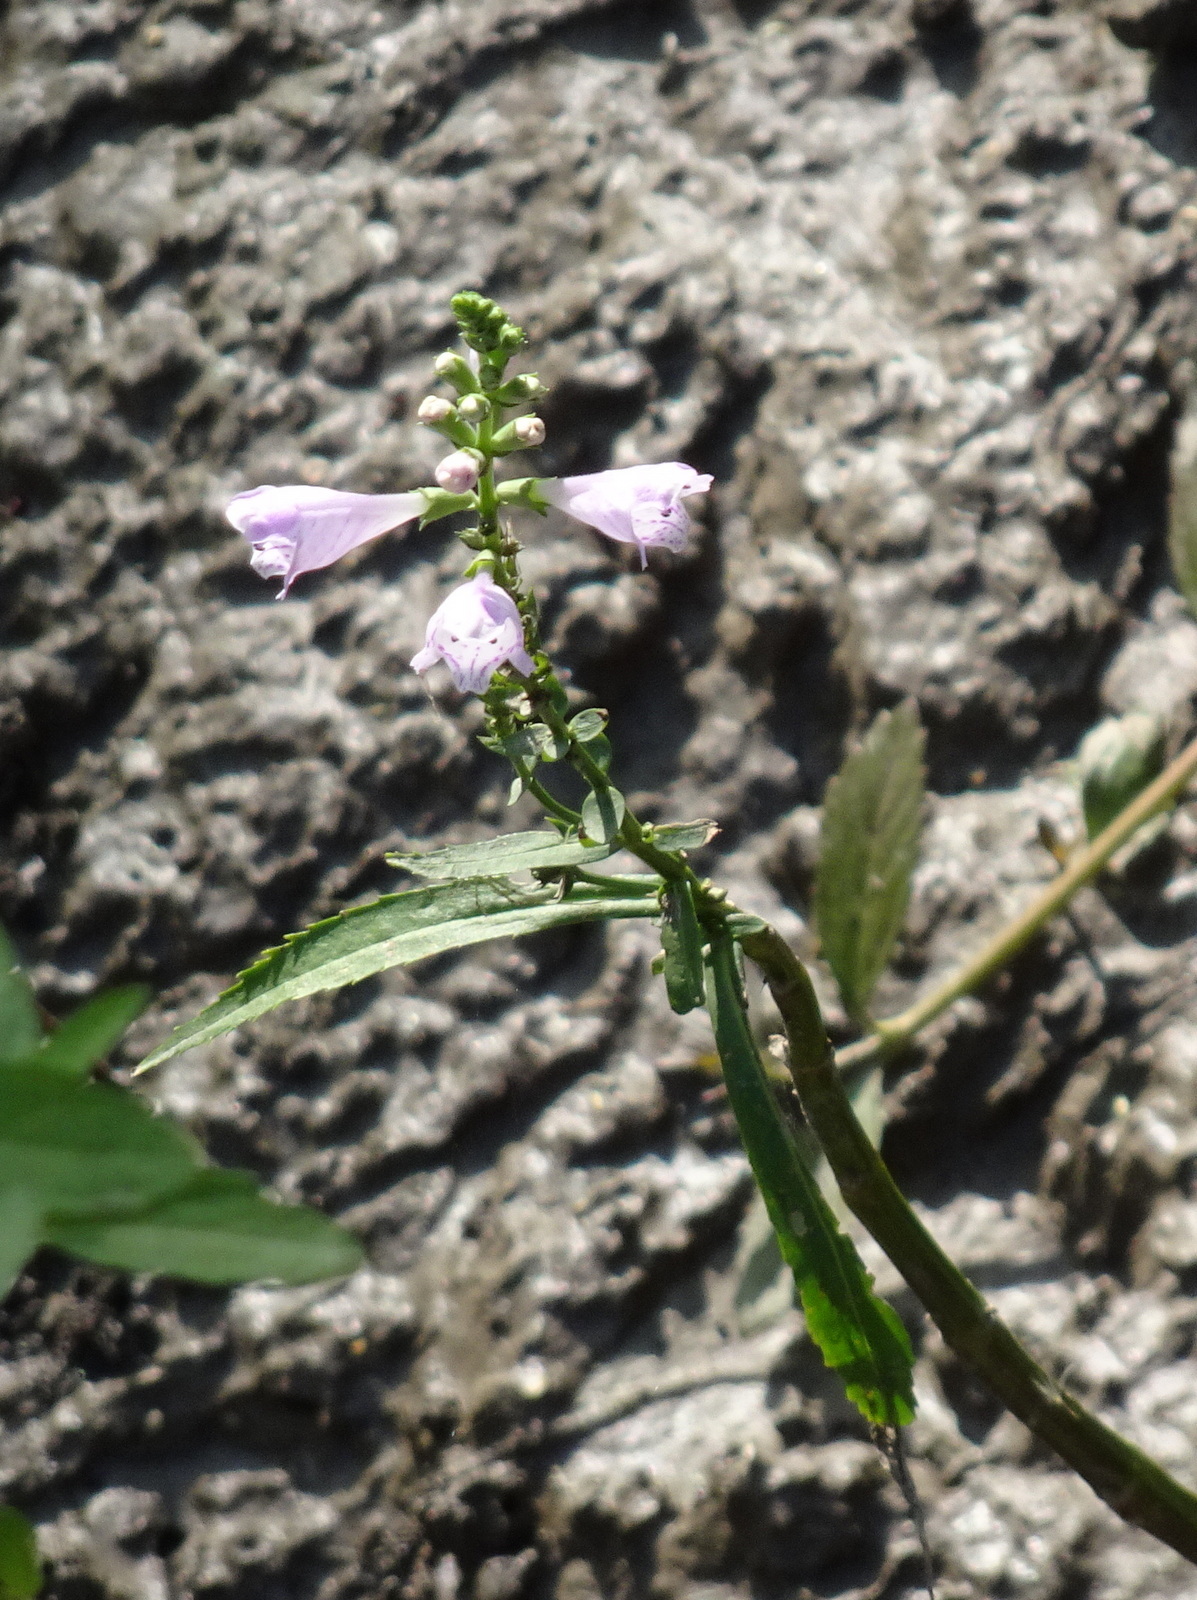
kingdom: Plantae
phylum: Tracheophyta
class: Magnoliopsida
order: Lamiales
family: Lamiaceae
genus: Physostegia
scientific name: Physostegia virginiana
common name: Obedient-plant
